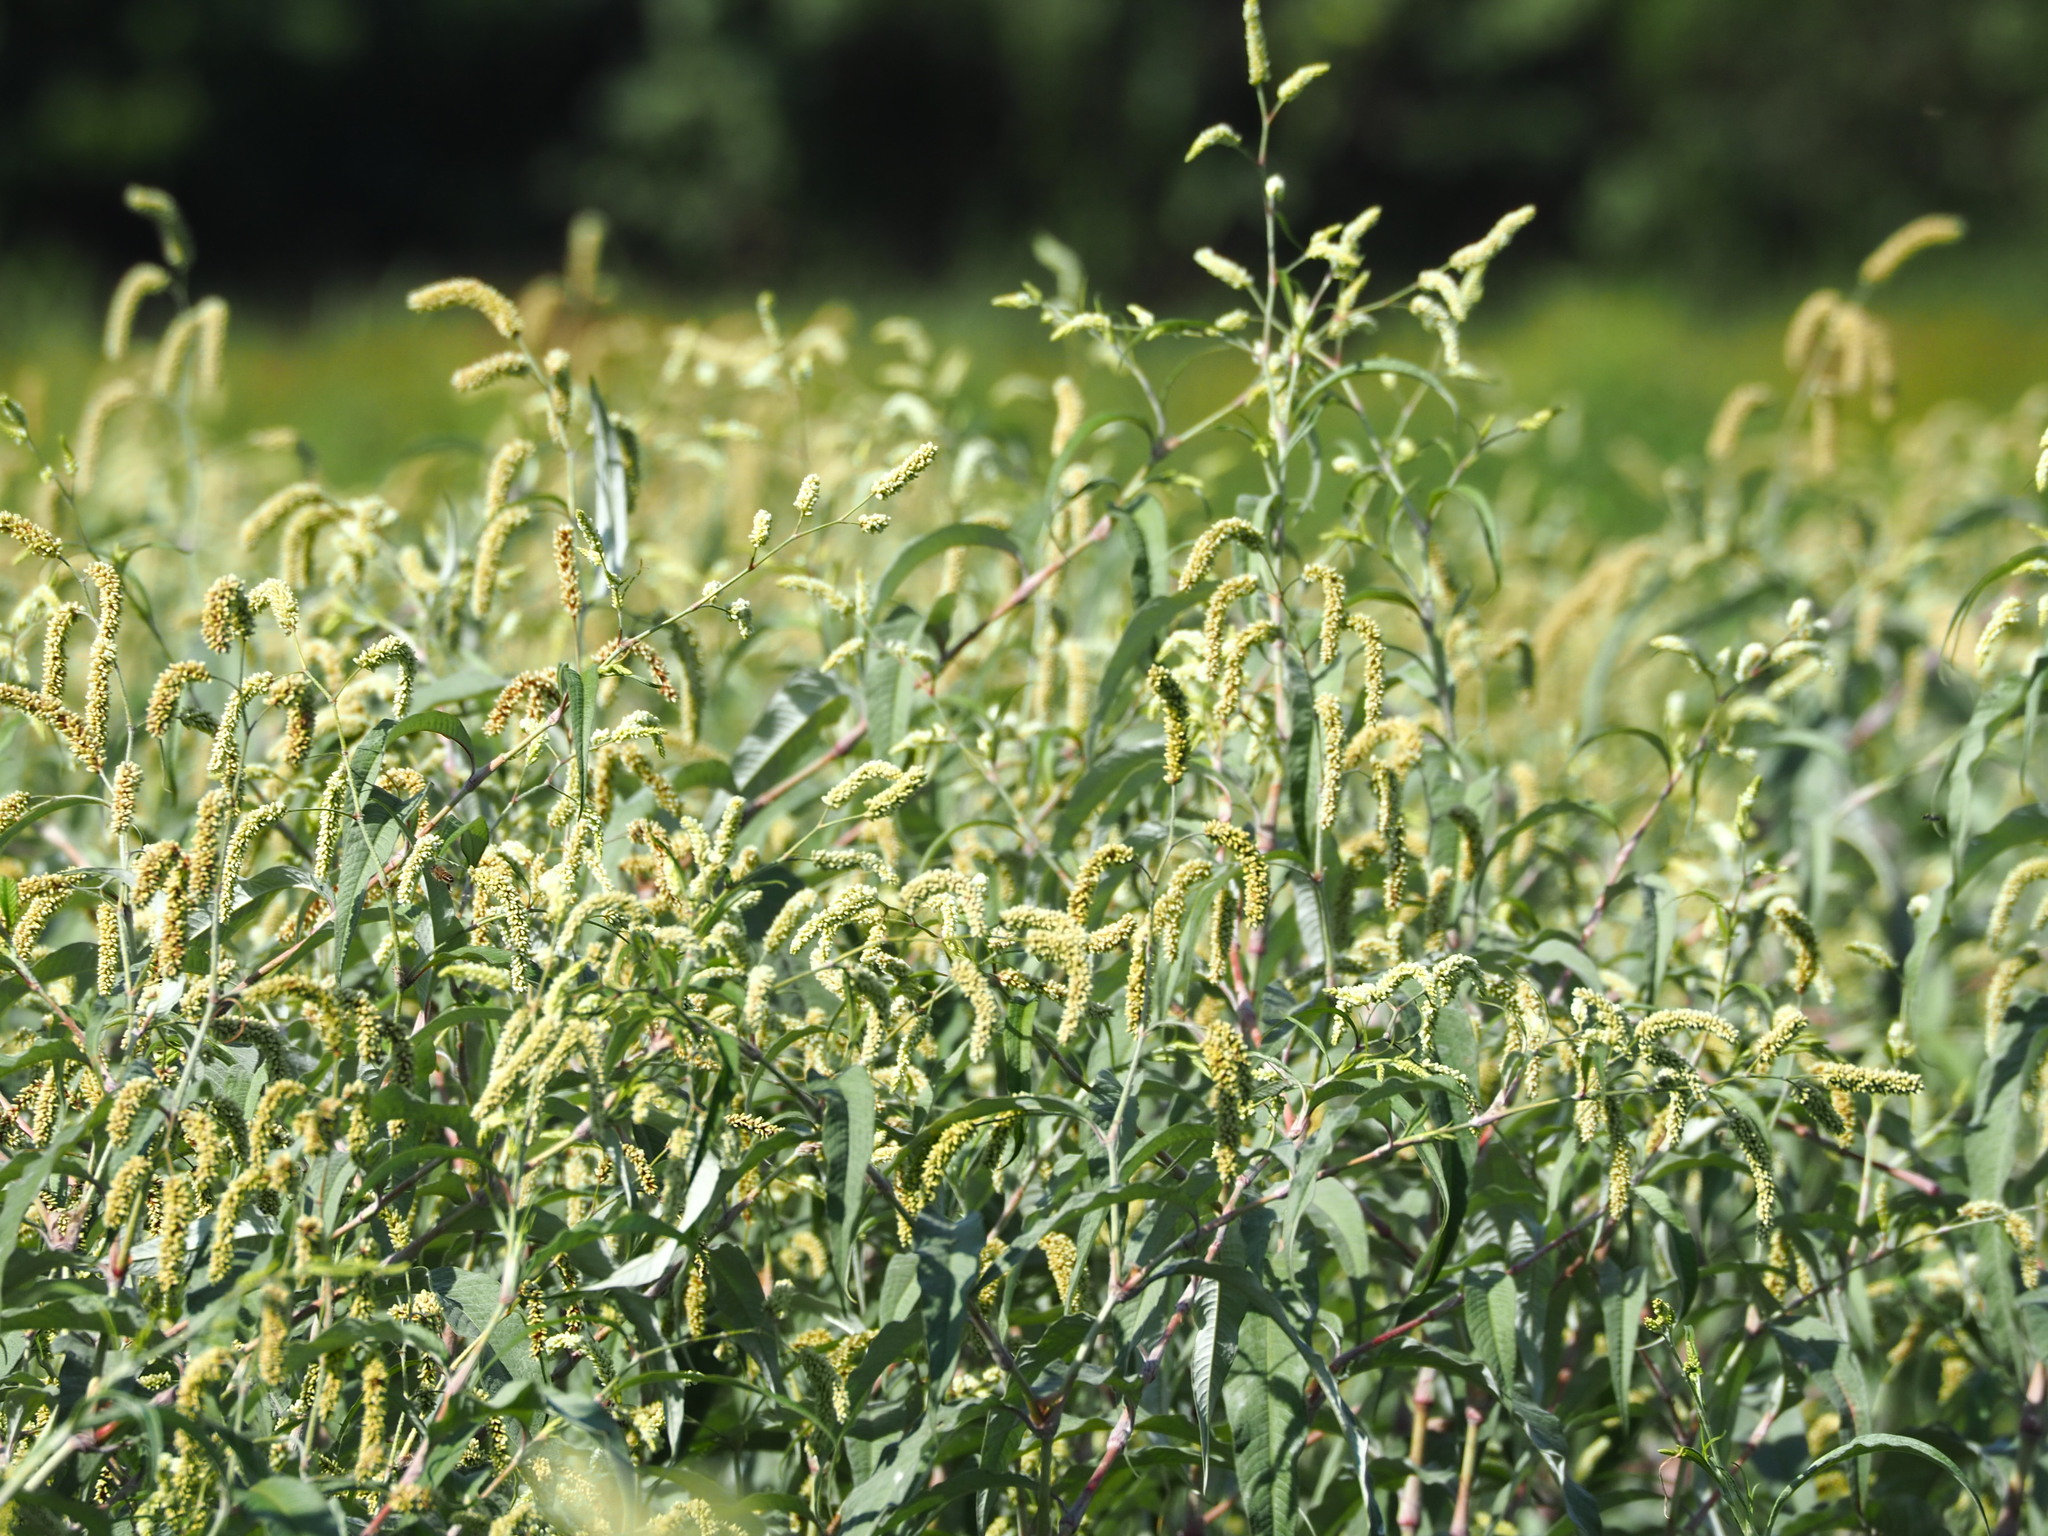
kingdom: Plantae
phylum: Tracheophyta
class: Magnoliopsida
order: Caryophyllales
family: Polygonaceae
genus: Persicaria
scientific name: Persicaria lanata
